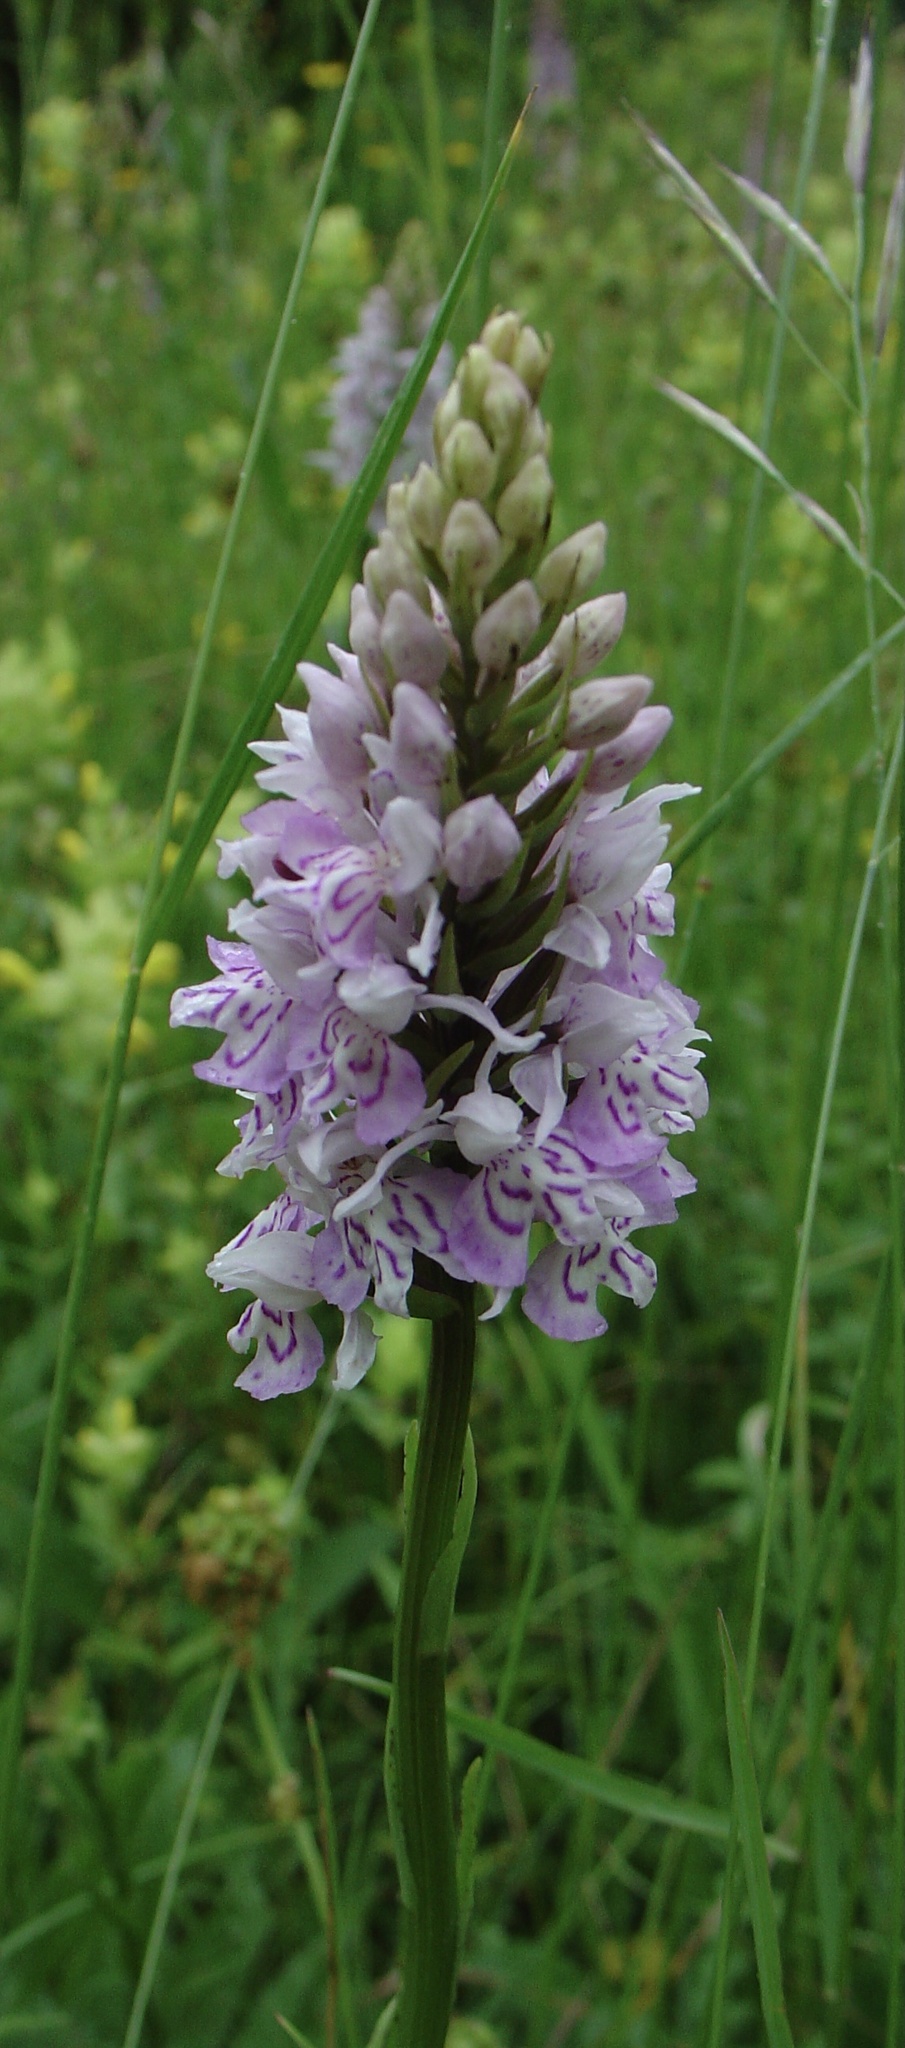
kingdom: Plantae
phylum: Tracheophyta
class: Liliopsida
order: Asparagales
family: Orchidaceae
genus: Dactylorhiza
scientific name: Dactylorhiza maculata
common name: Heath spotted-orchid
